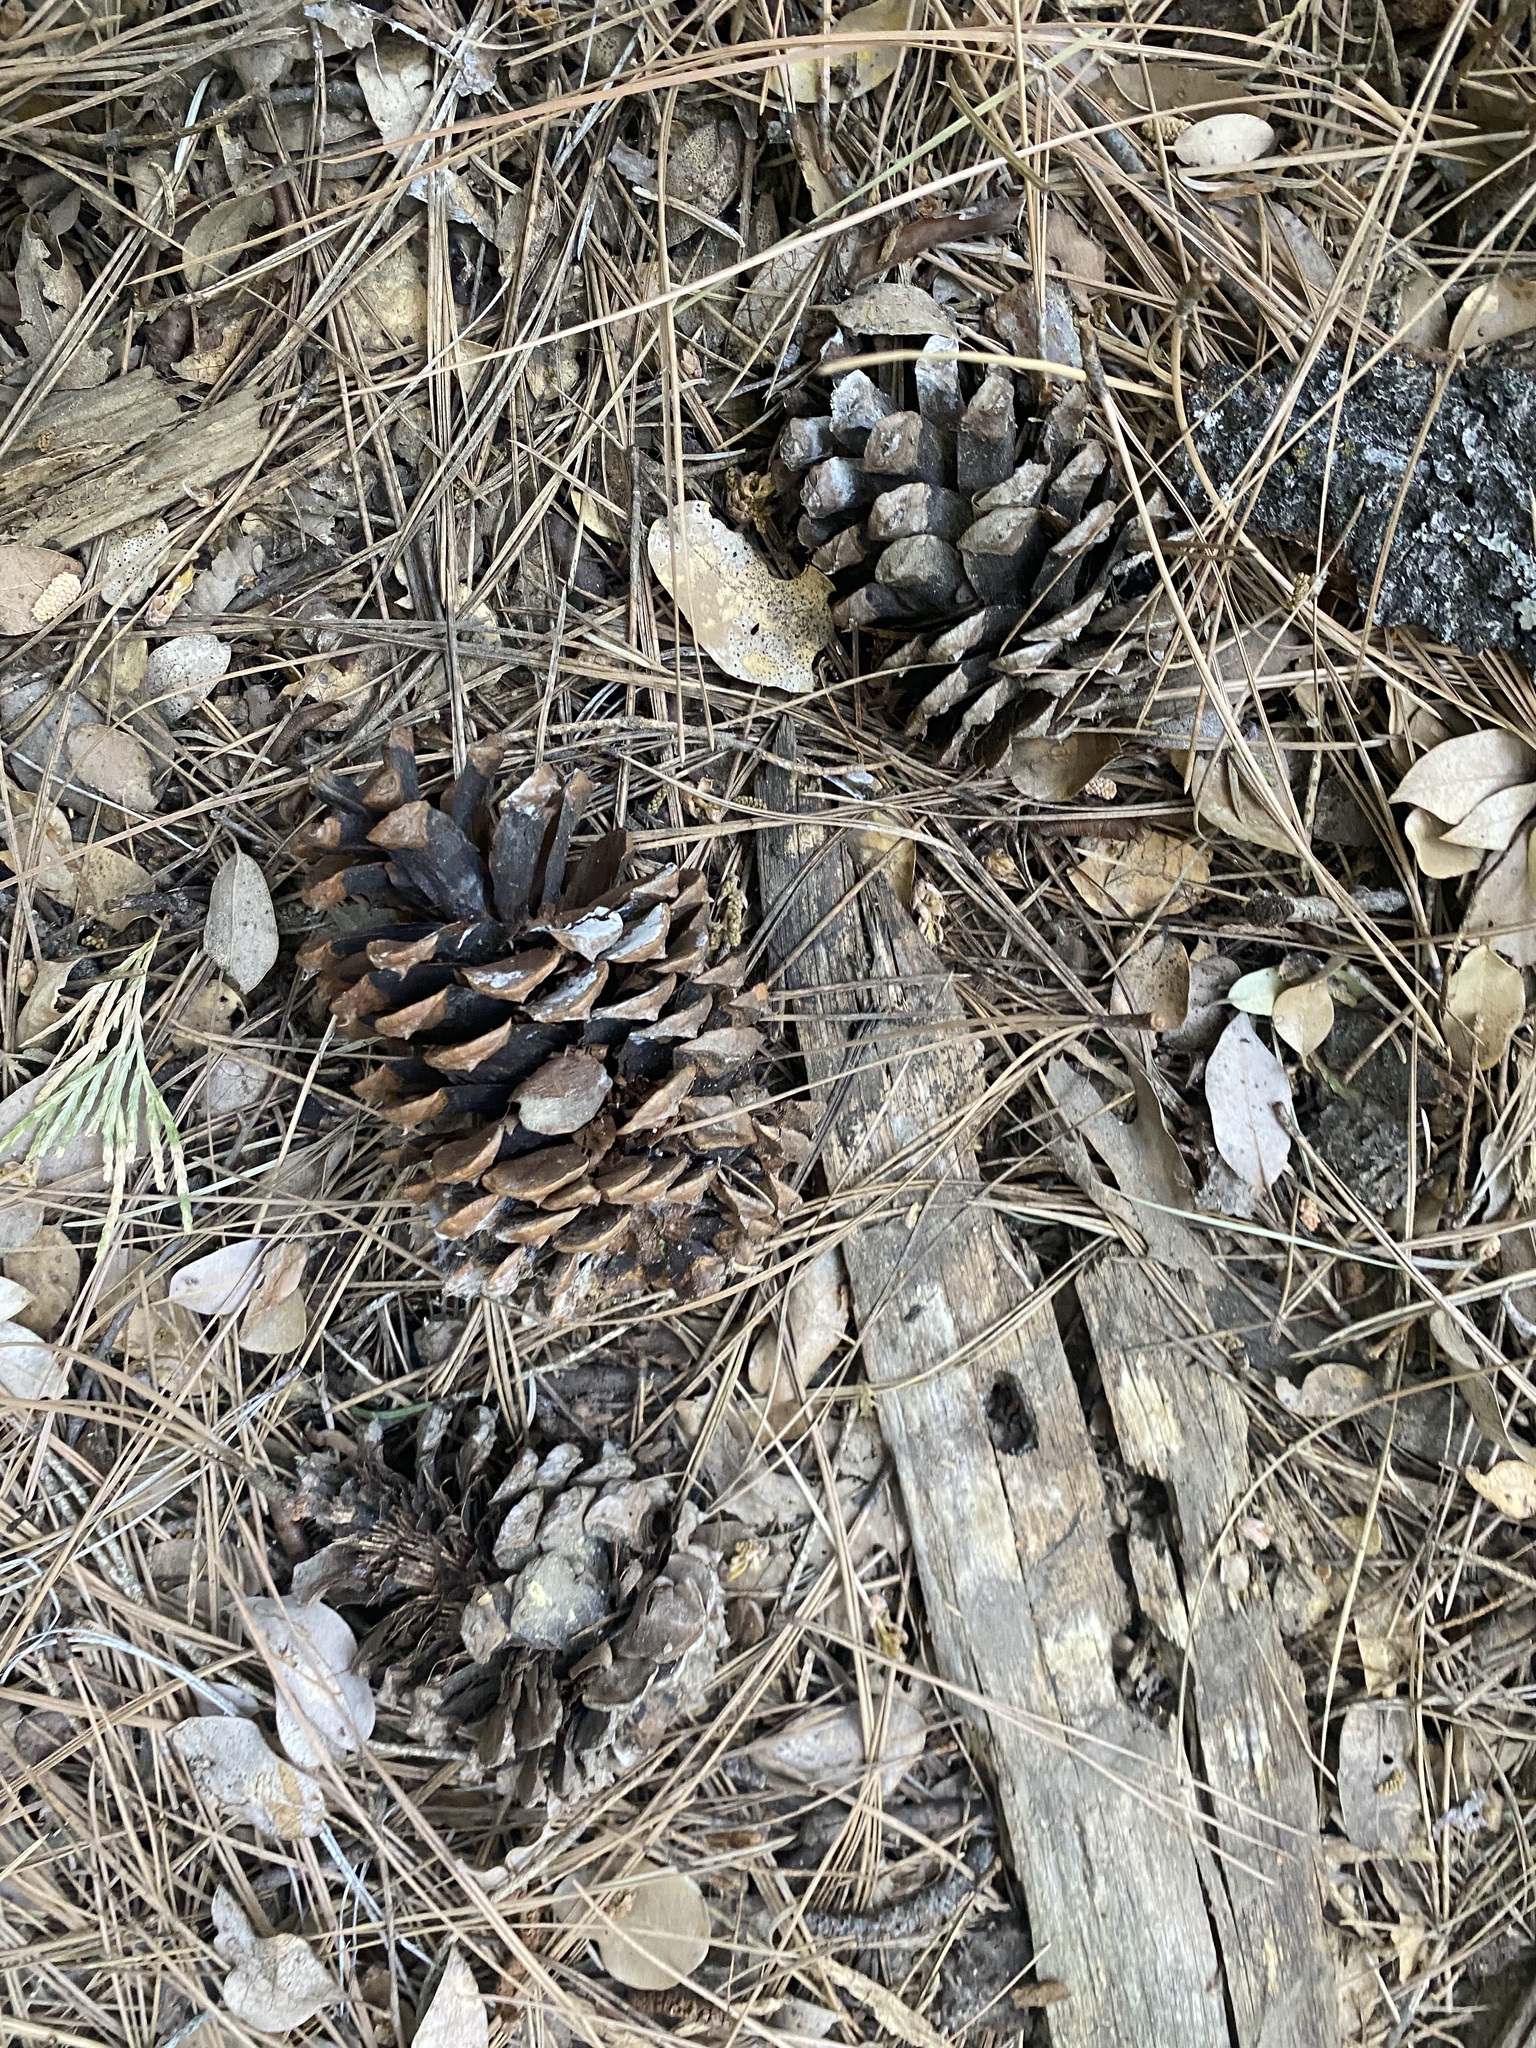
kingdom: Plantae
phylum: Tracheophyta
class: Pinopsida
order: Pinales
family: Pinaceae
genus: Pinus
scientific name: Pinus ponderosa
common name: Western yellow-pine
